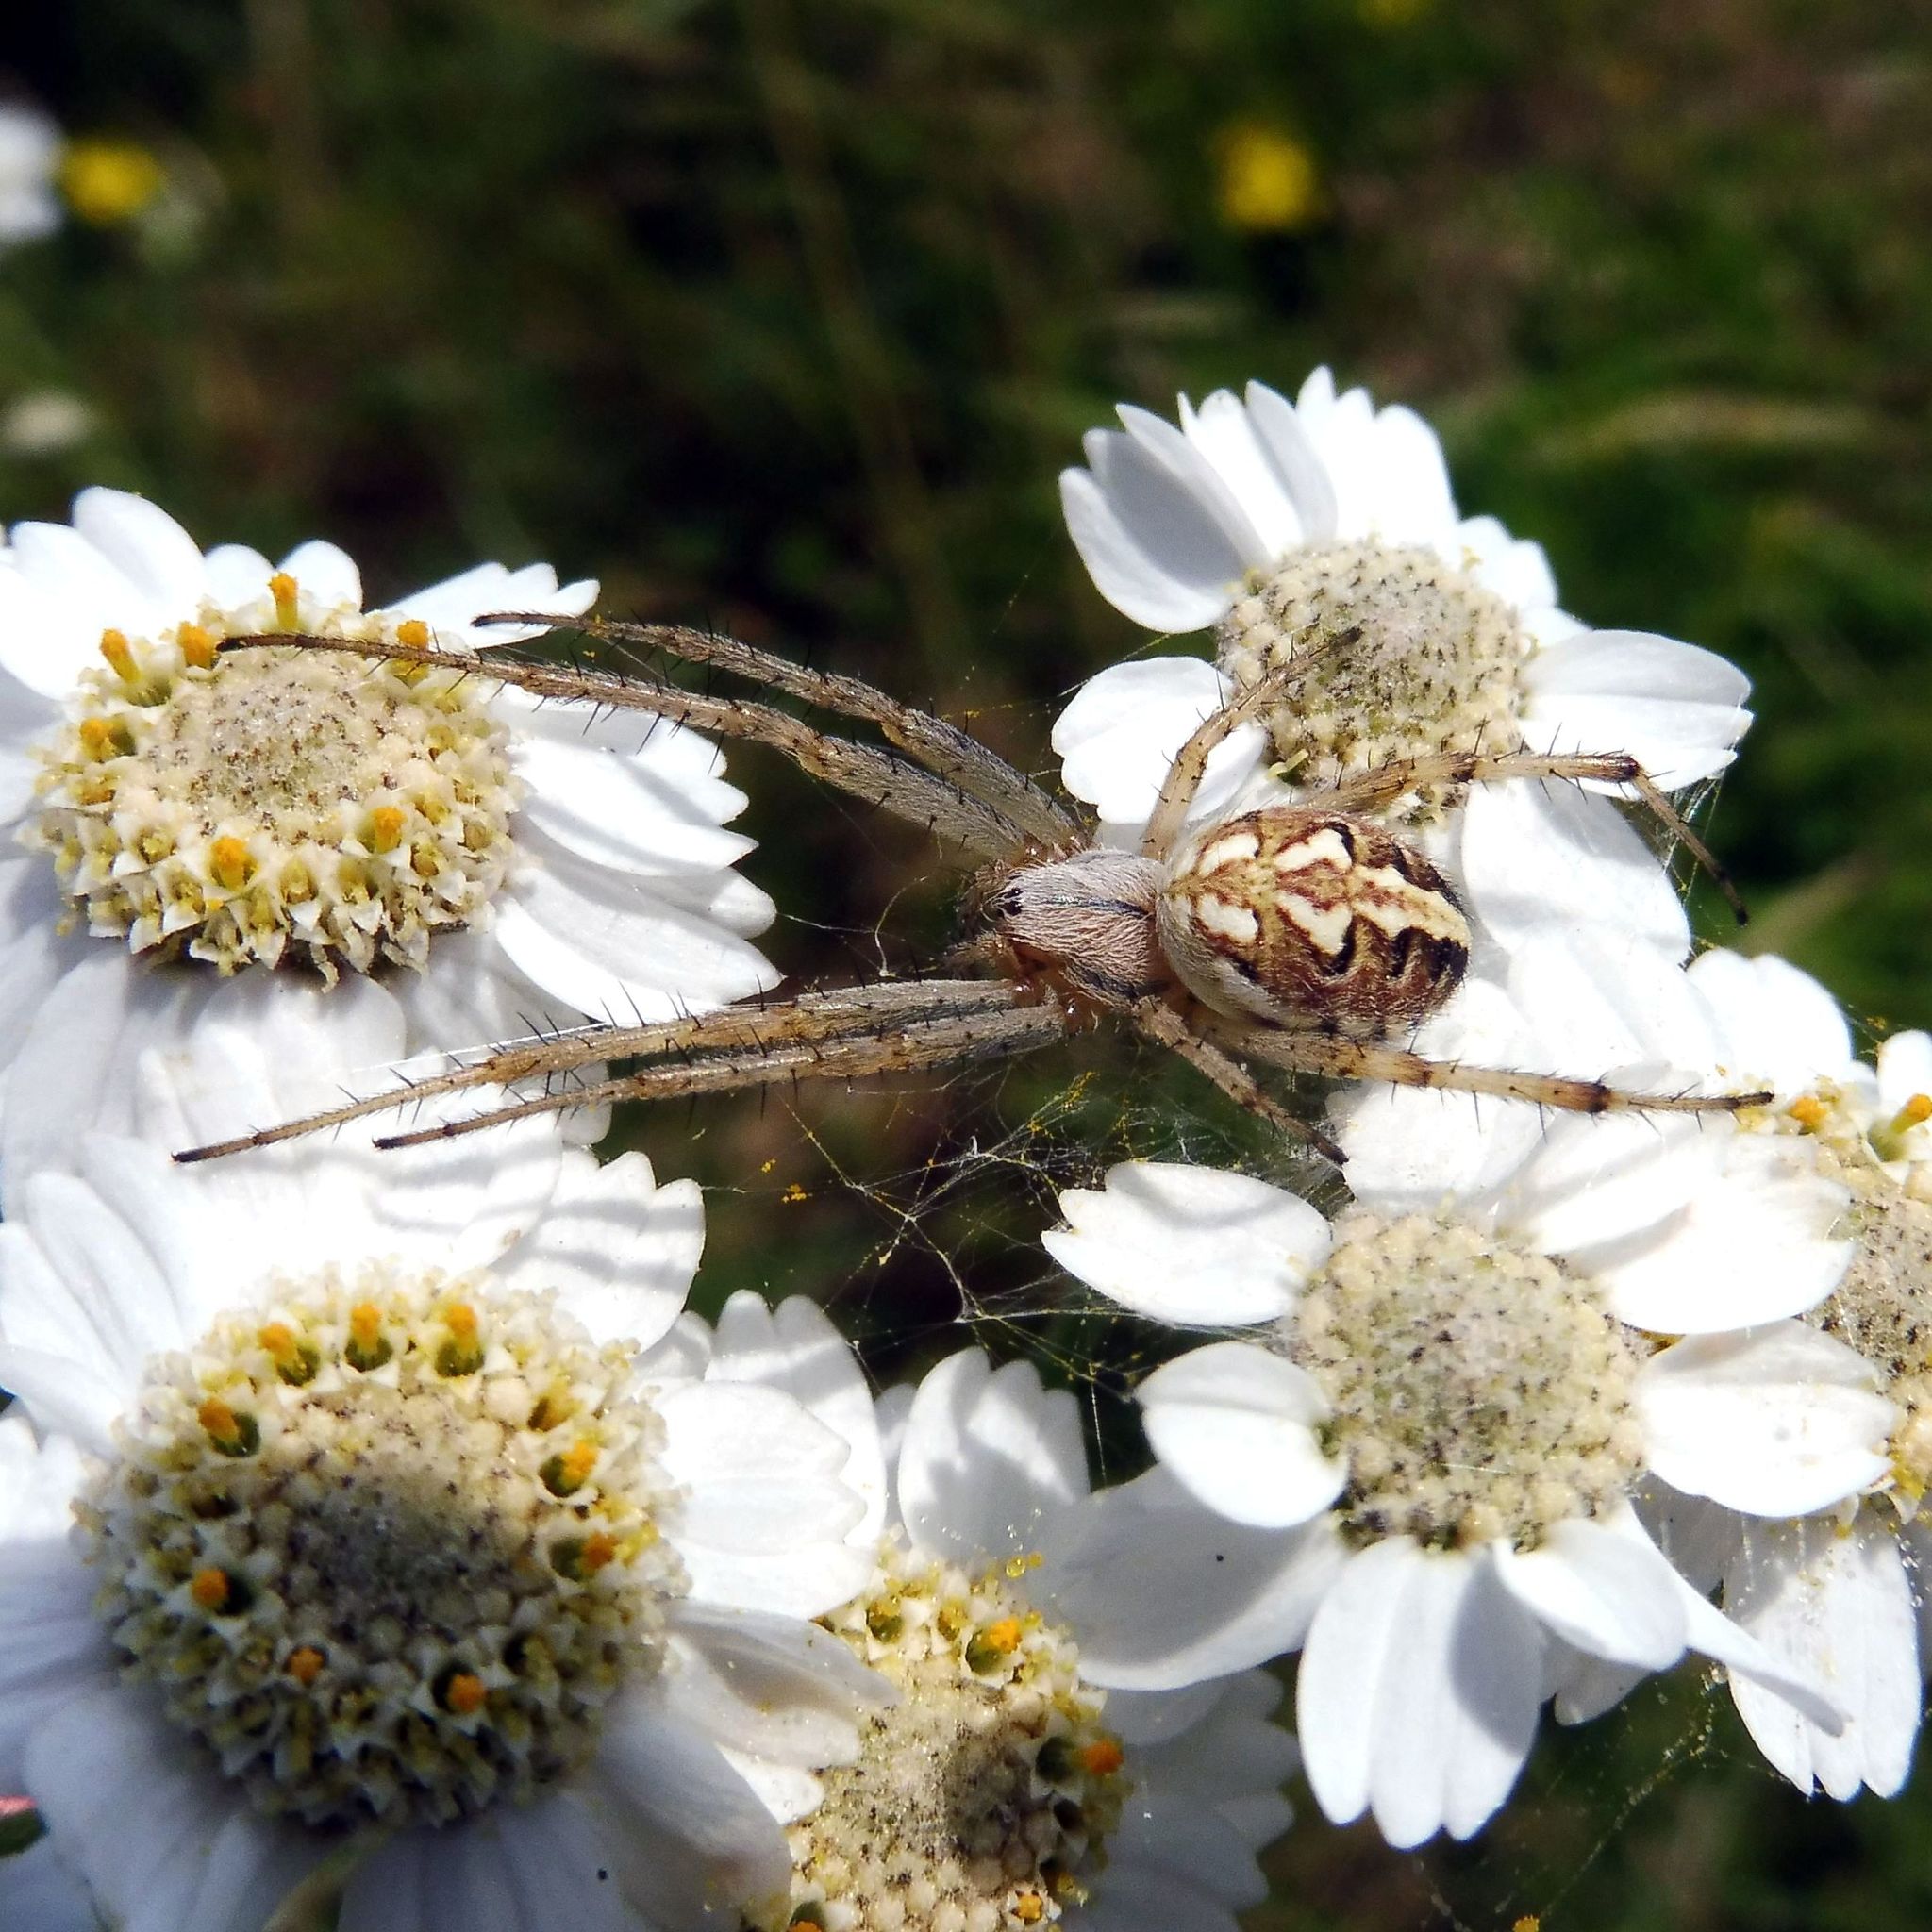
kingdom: Animalia
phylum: Arthropoda
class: Arachnida
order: Araneae
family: Araneidae
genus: Neoscona
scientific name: Neoscona adianta
